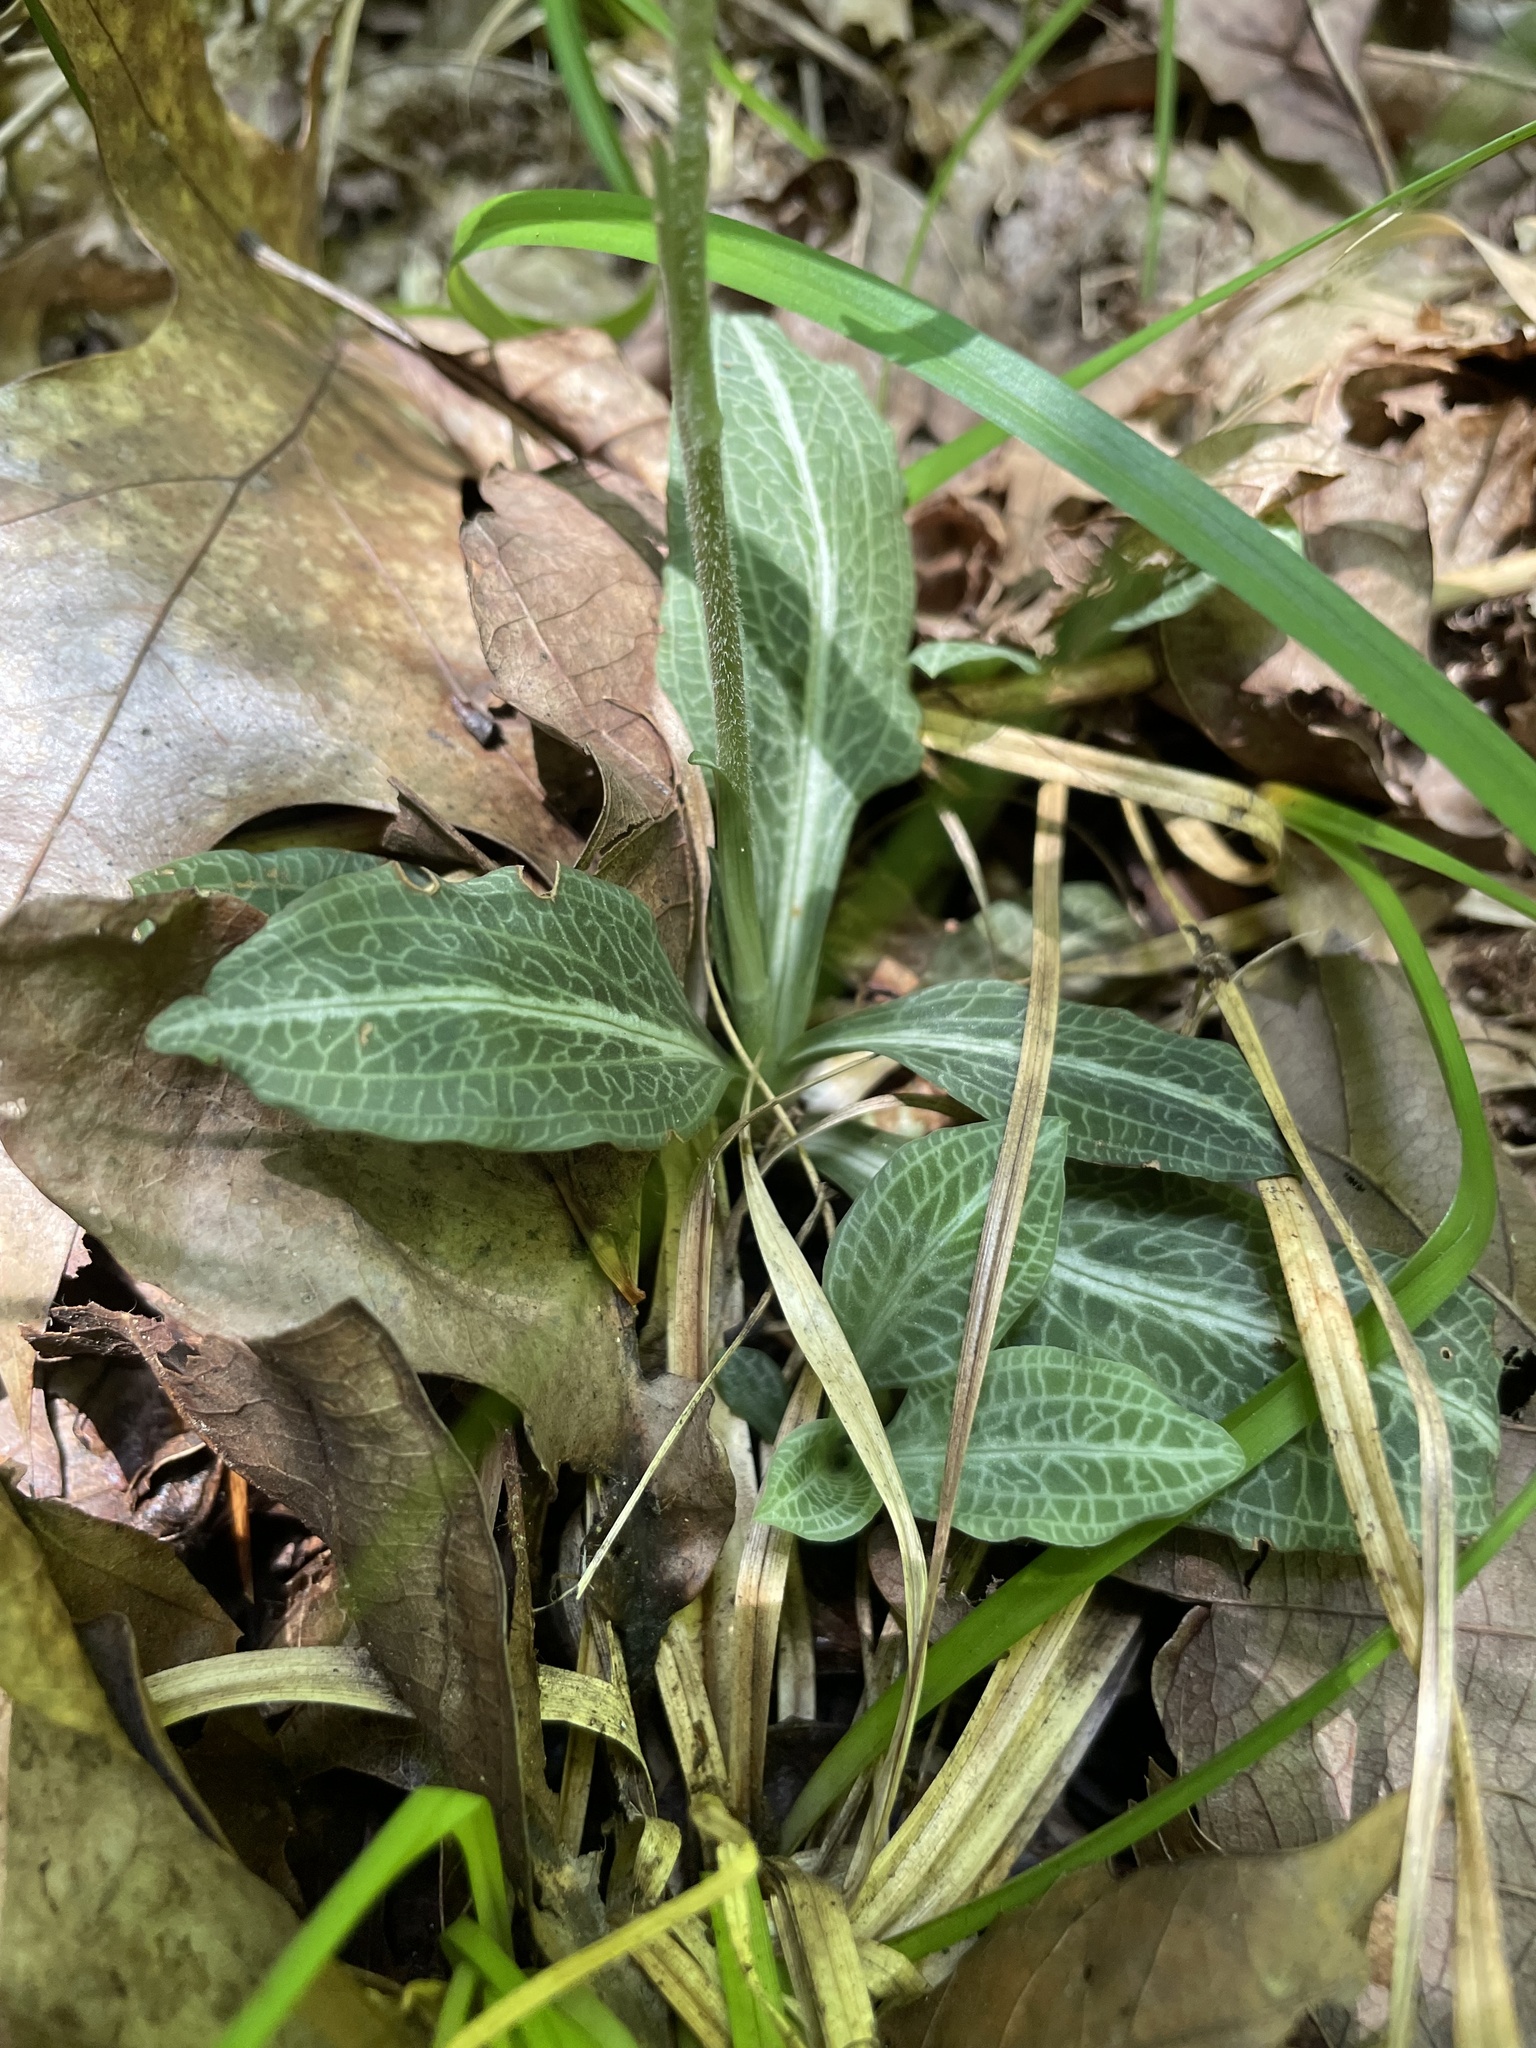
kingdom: Plantae
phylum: Tracheophyta
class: Liliopsida
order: Asparagales
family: Orchidaceae
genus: Goodyera
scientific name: Goodyera pubescens
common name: Downy rattlesnake-plantain
